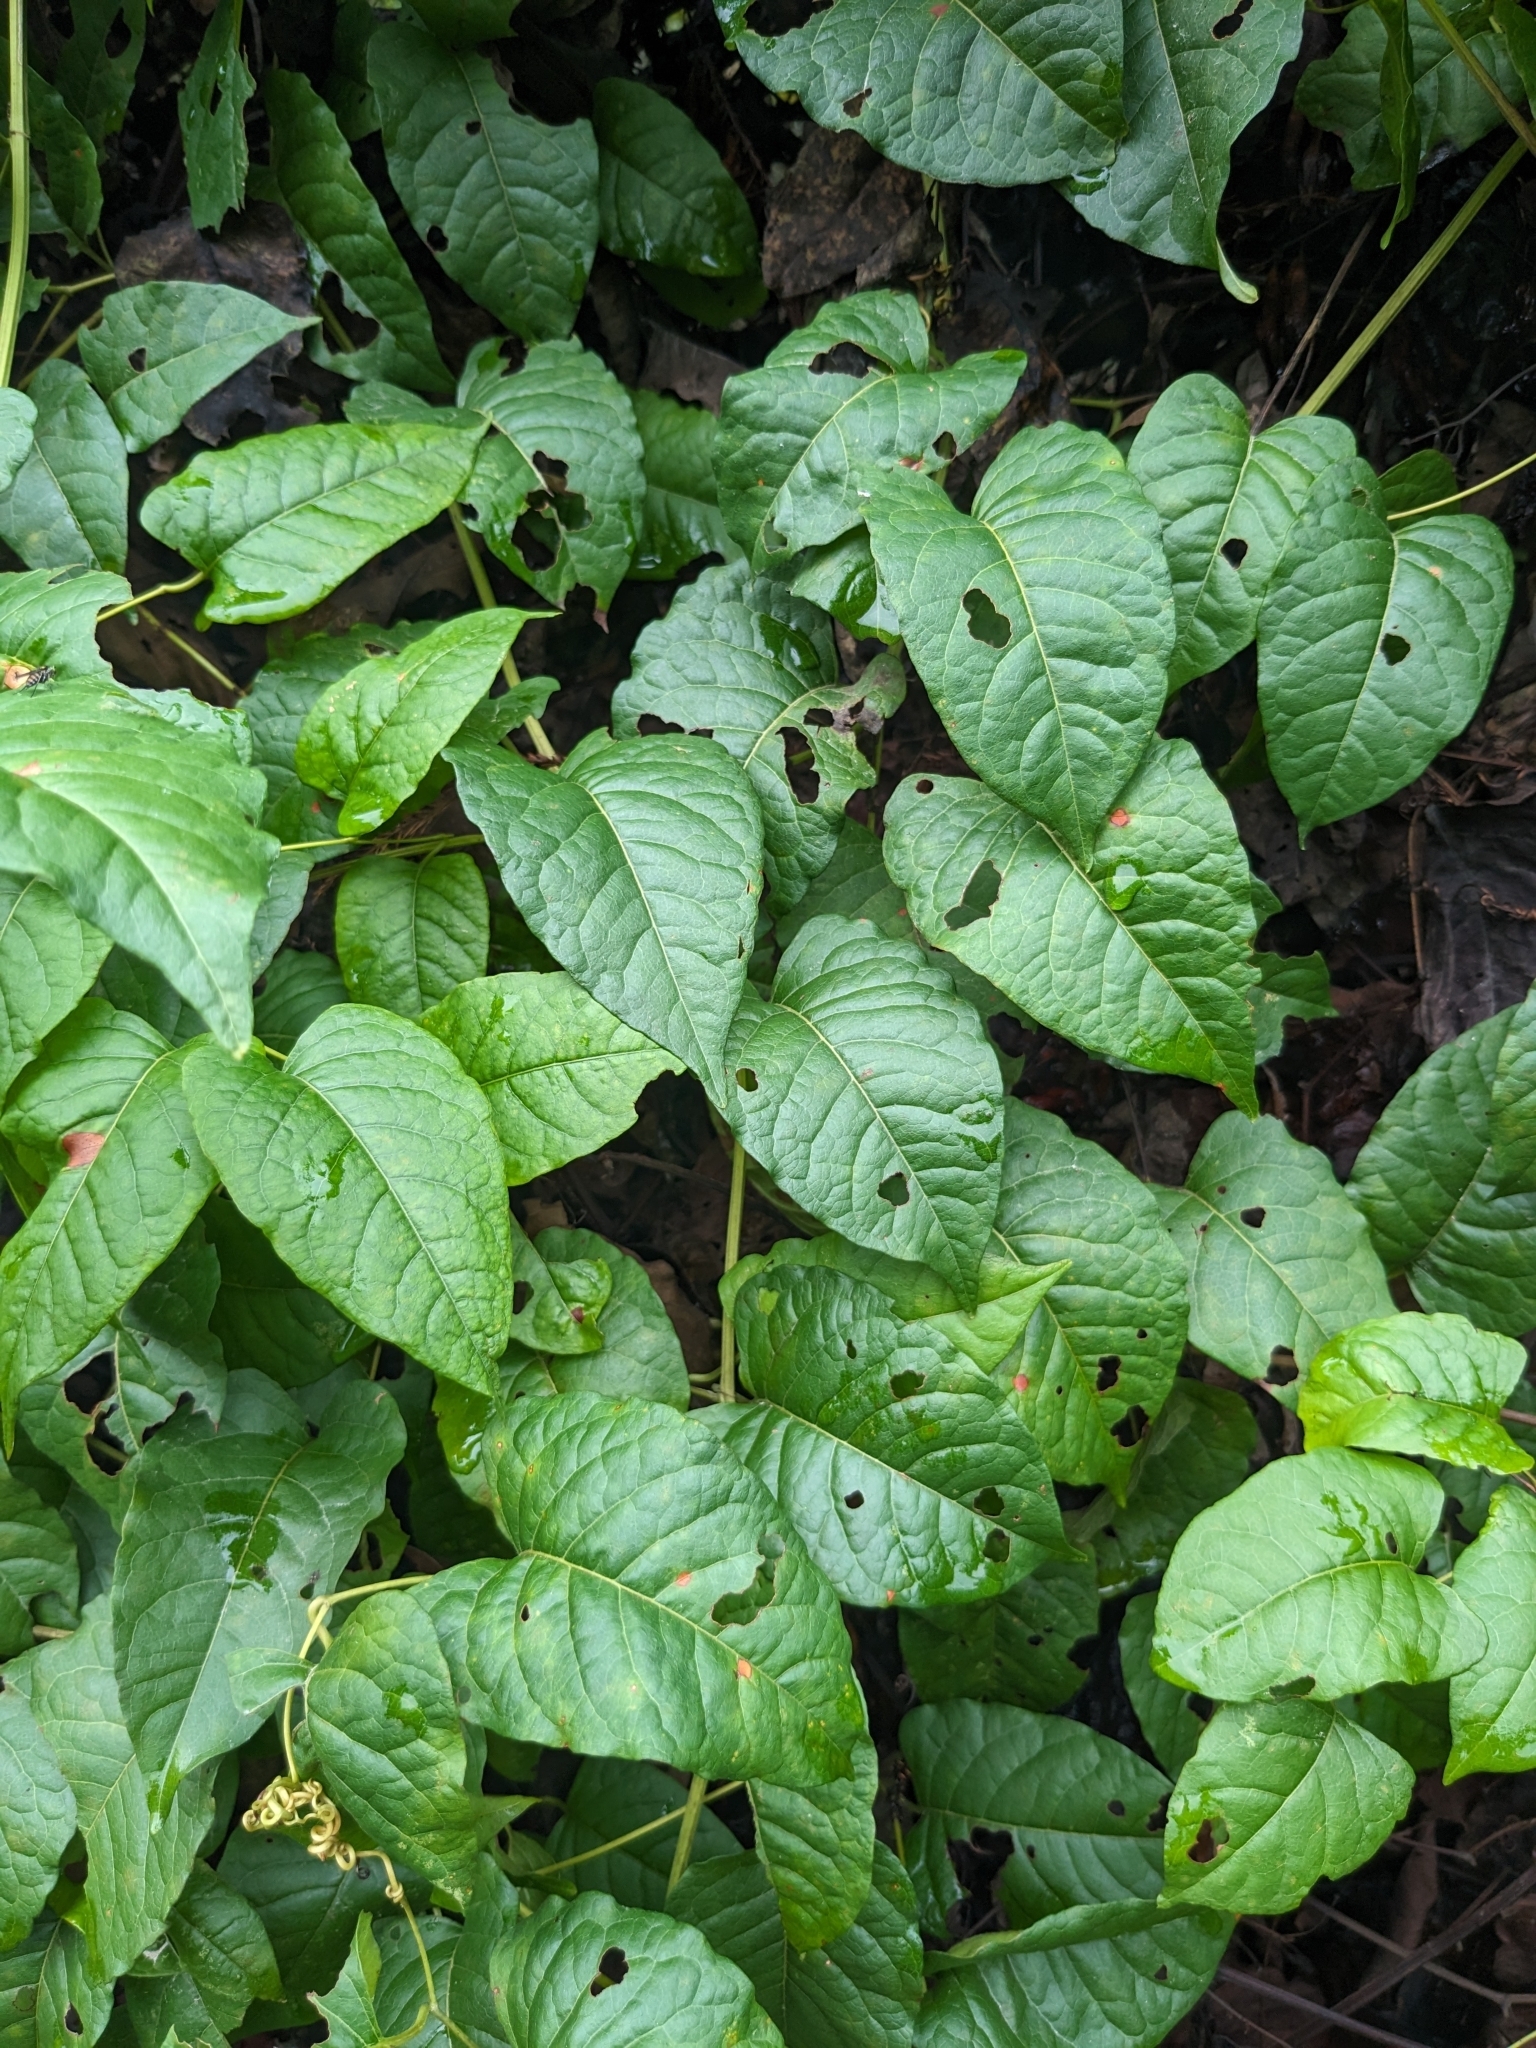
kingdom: Plantae
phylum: Tracheophyta
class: Magnoliopsida
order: Caryophyllales
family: Polygonaceae
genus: Brunnichia
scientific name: Brunnichia ovata
